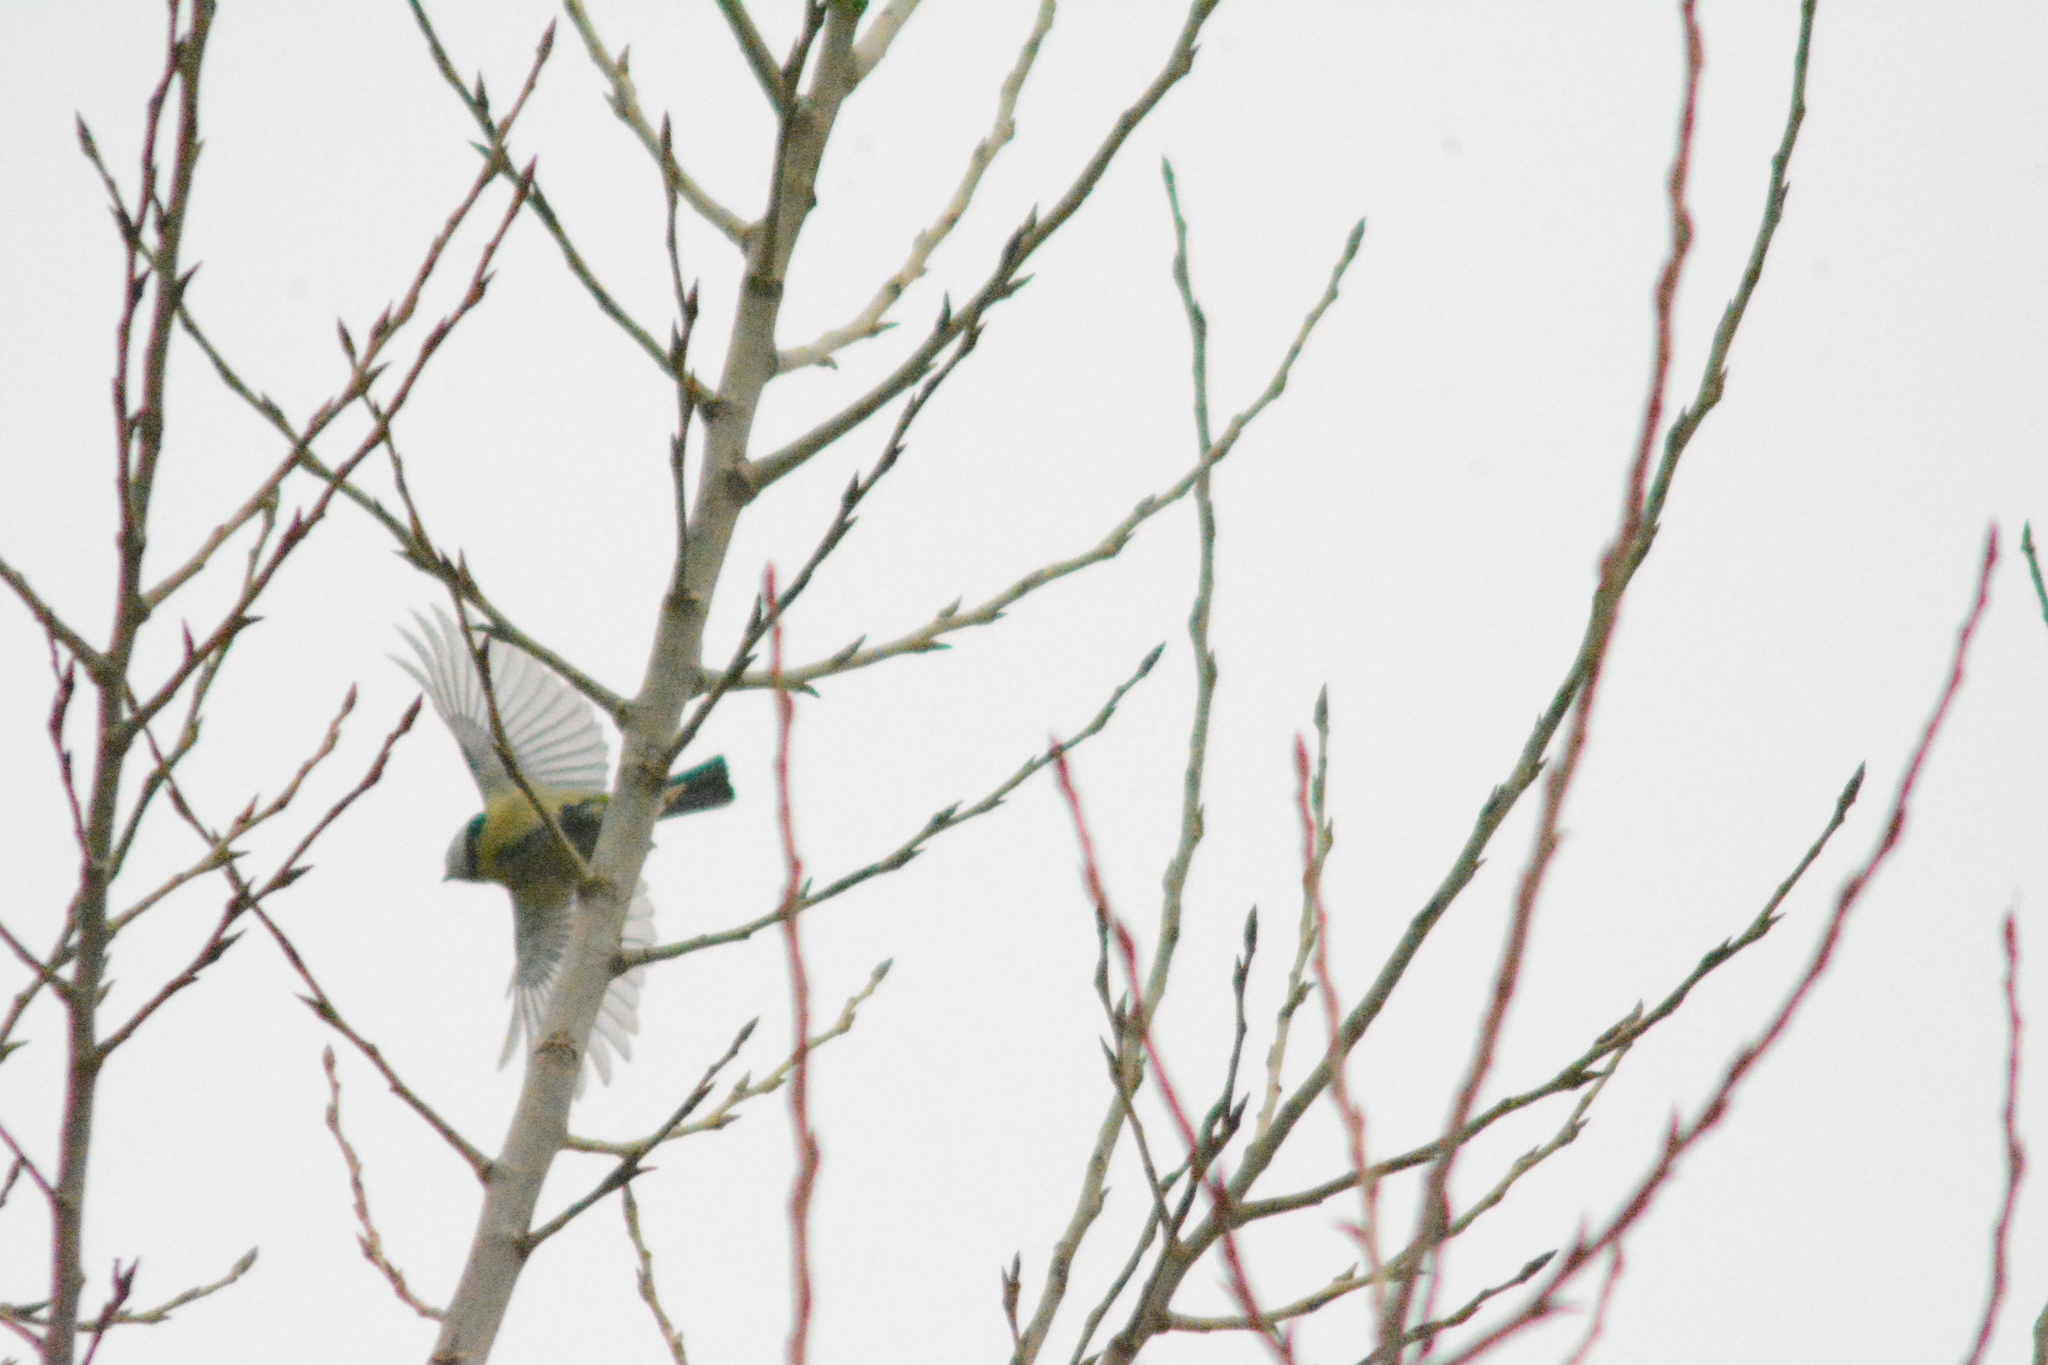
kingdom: Animalia
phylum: Chordata
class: Aves
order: Passeriformes
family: Paridae
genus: Cyanistes
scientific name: Cyanistes caeruleus
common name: Eurasian blue tit
